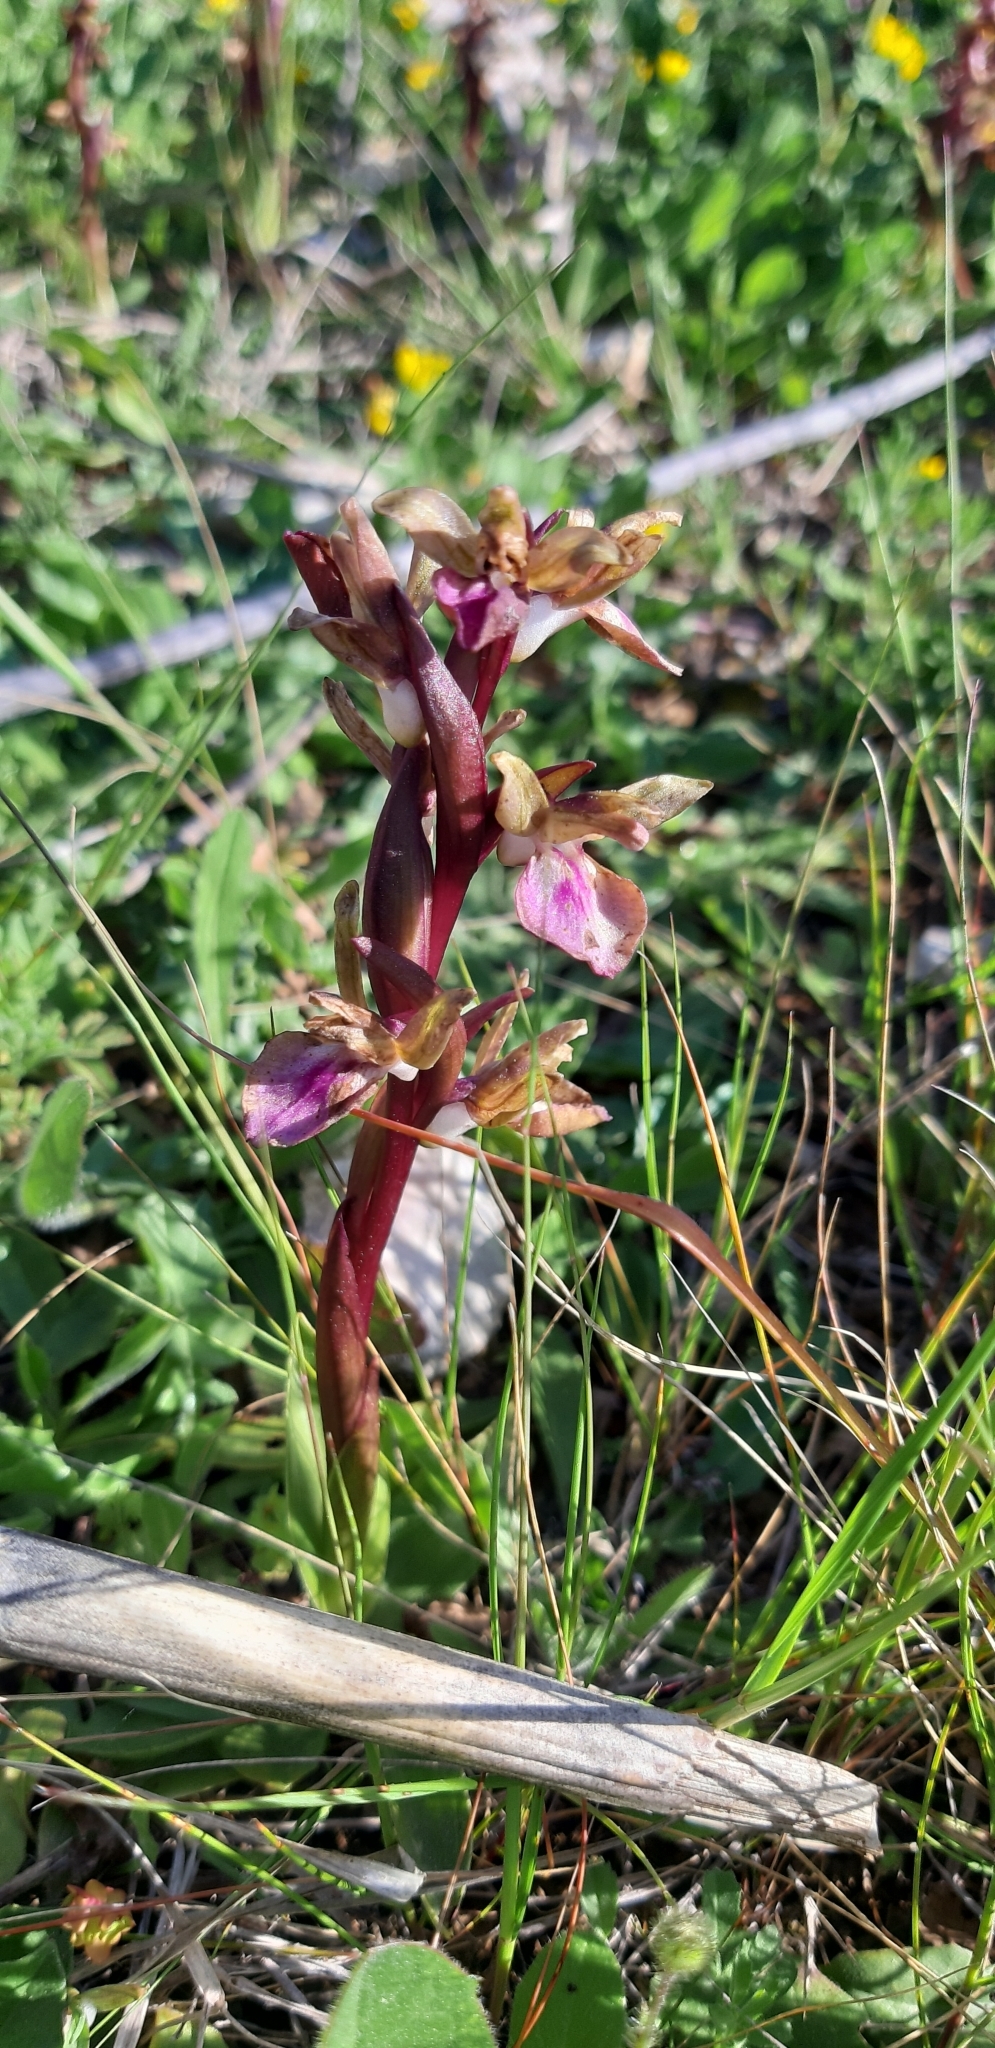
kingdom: Plantae
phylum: Tracheophyta
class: Liliopsida
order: Asparagales
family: Orchidaceae
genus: Anacamptis
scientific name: Anacamptis collina
